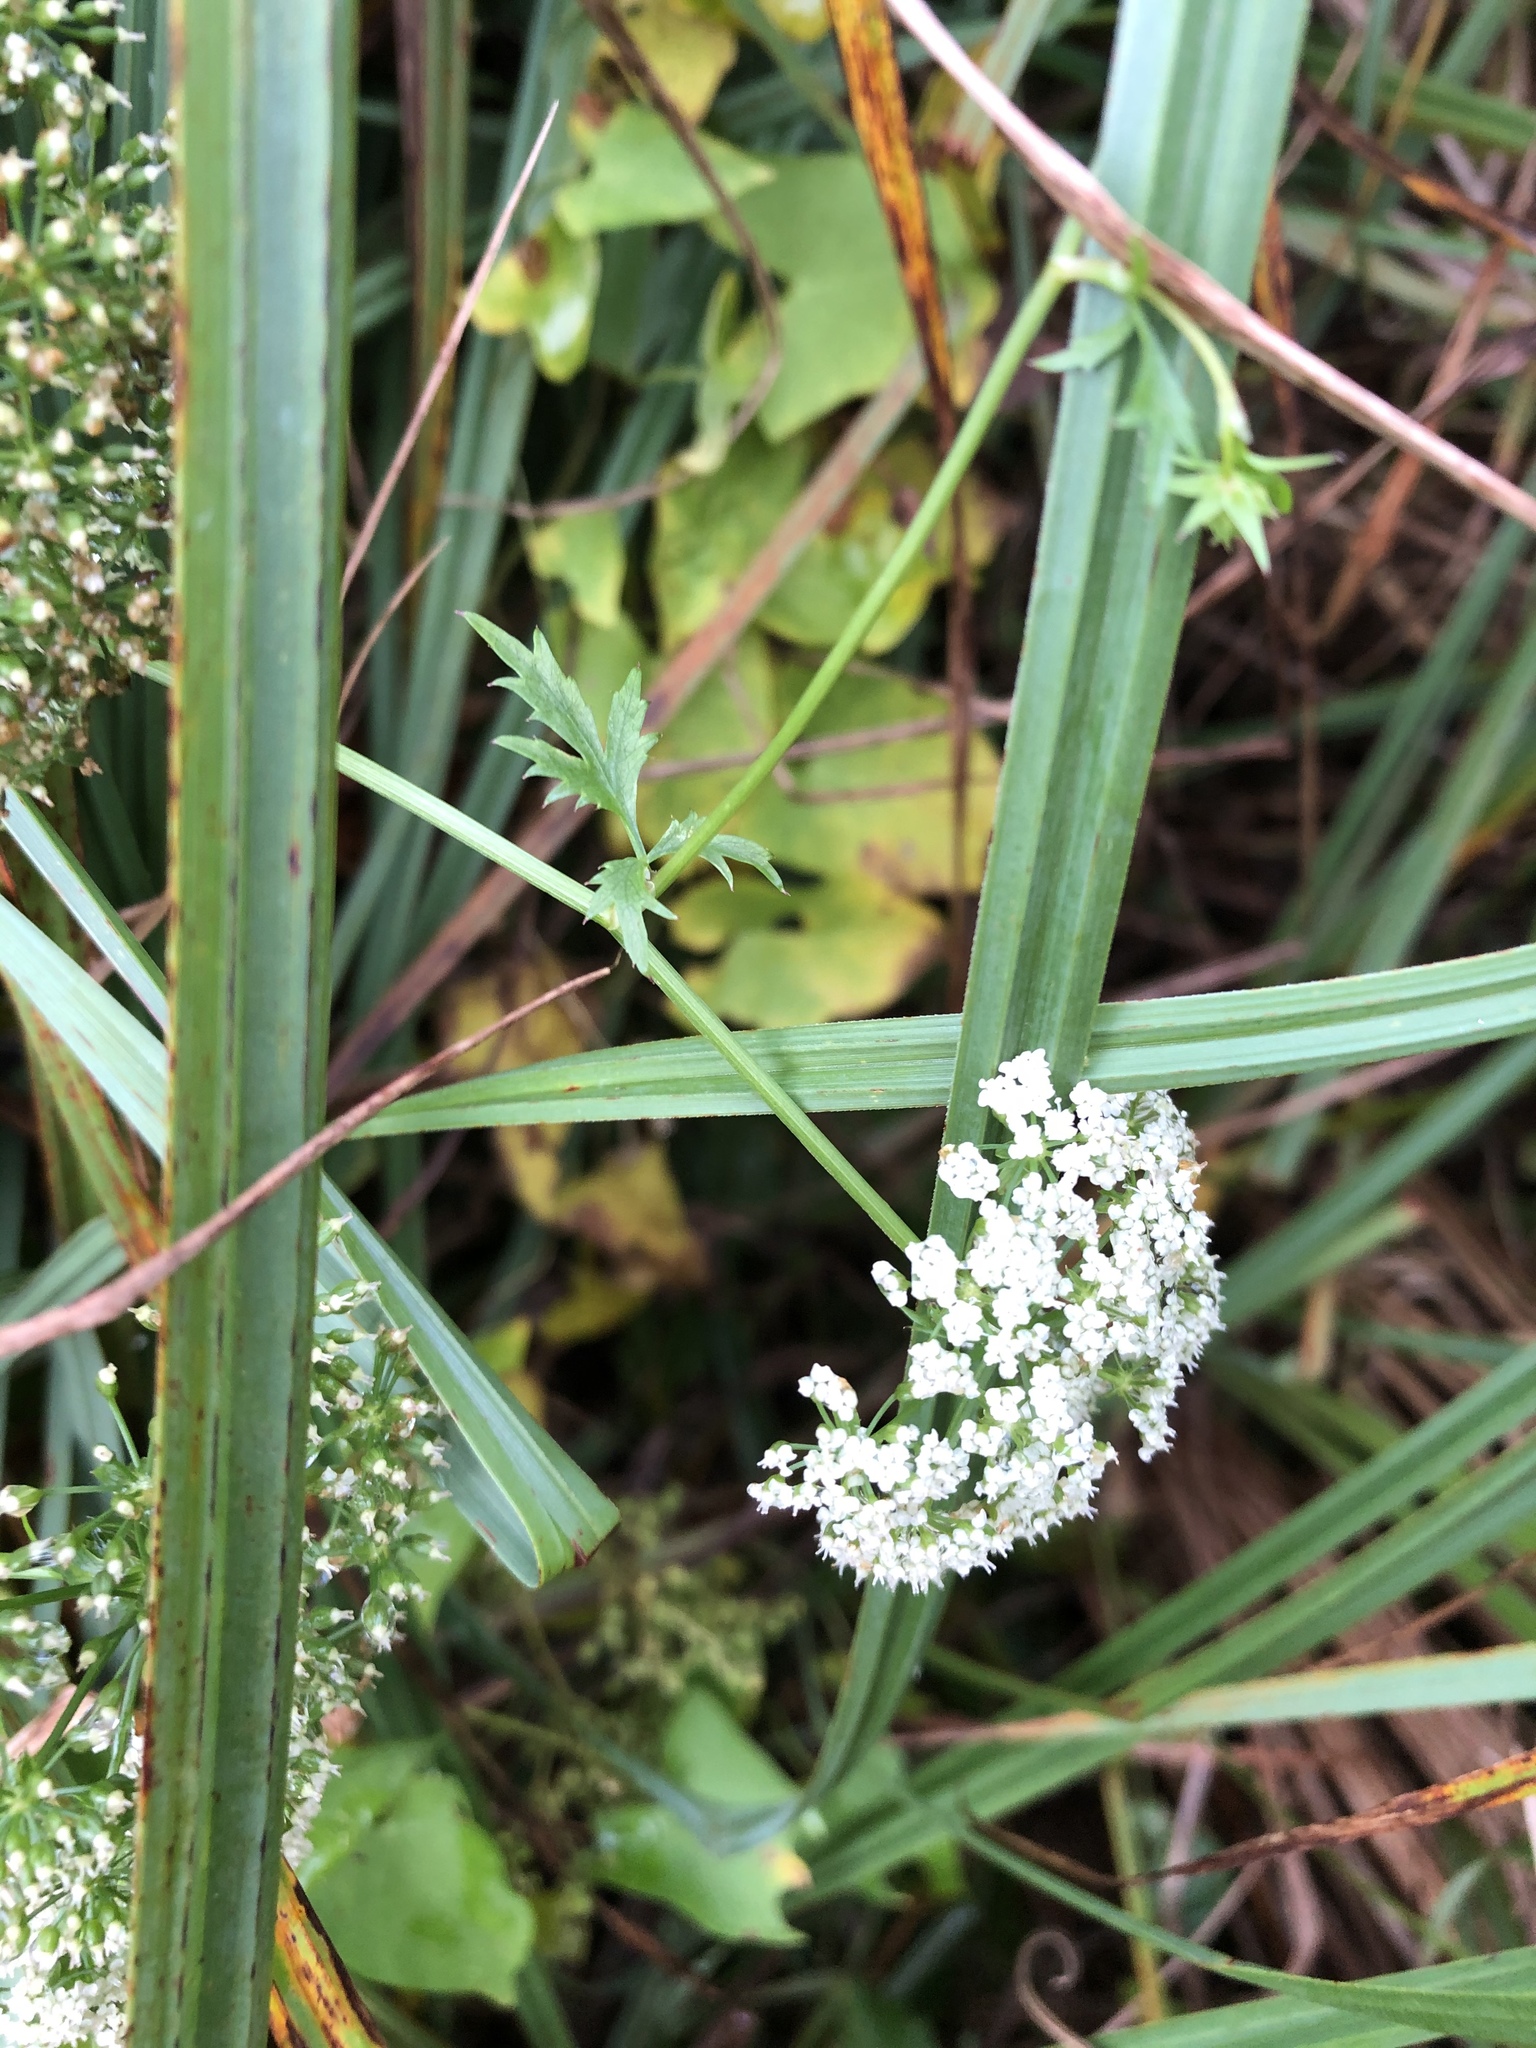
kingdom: Plantae
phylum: Tracheophyta
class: Magnoliopsida
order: Apiales
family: Apiaceae
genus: Berula
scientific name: Berula erecta
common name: Lesser water-parsnip
